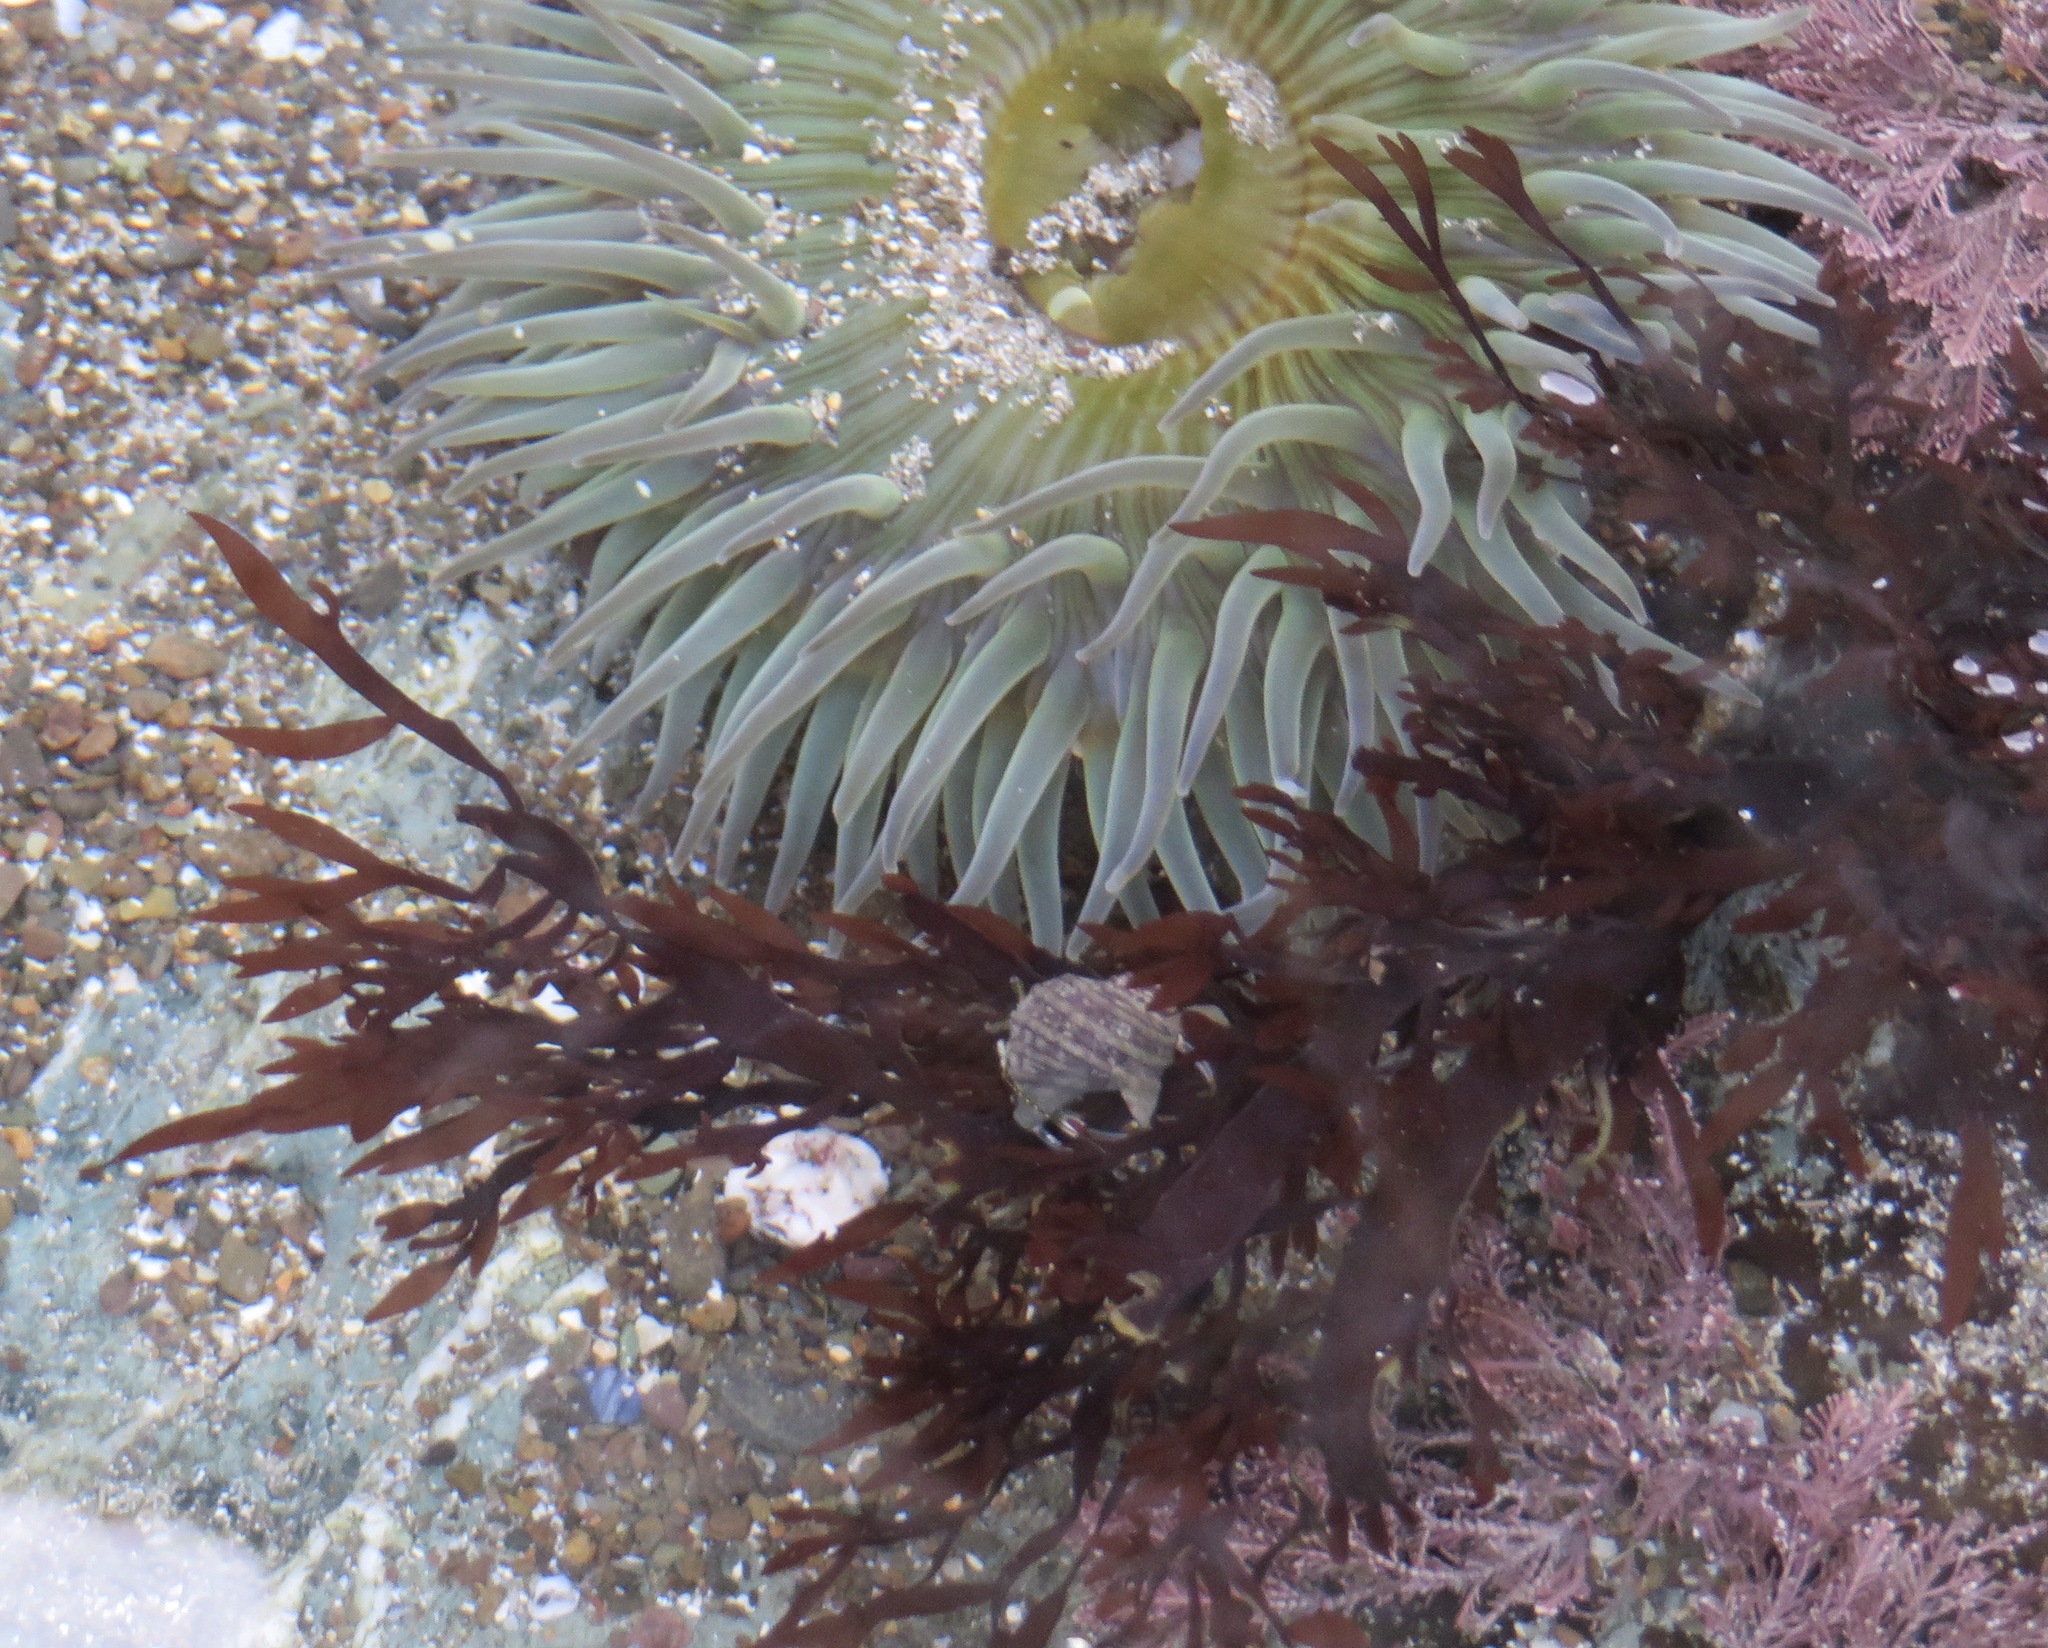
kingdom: Animalia
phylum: Cnidaria
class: Anthozoa
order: Actiniaria
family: Actiniidae
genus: Anthopleura
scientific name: Anthopleura sola
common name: Sun anemone
